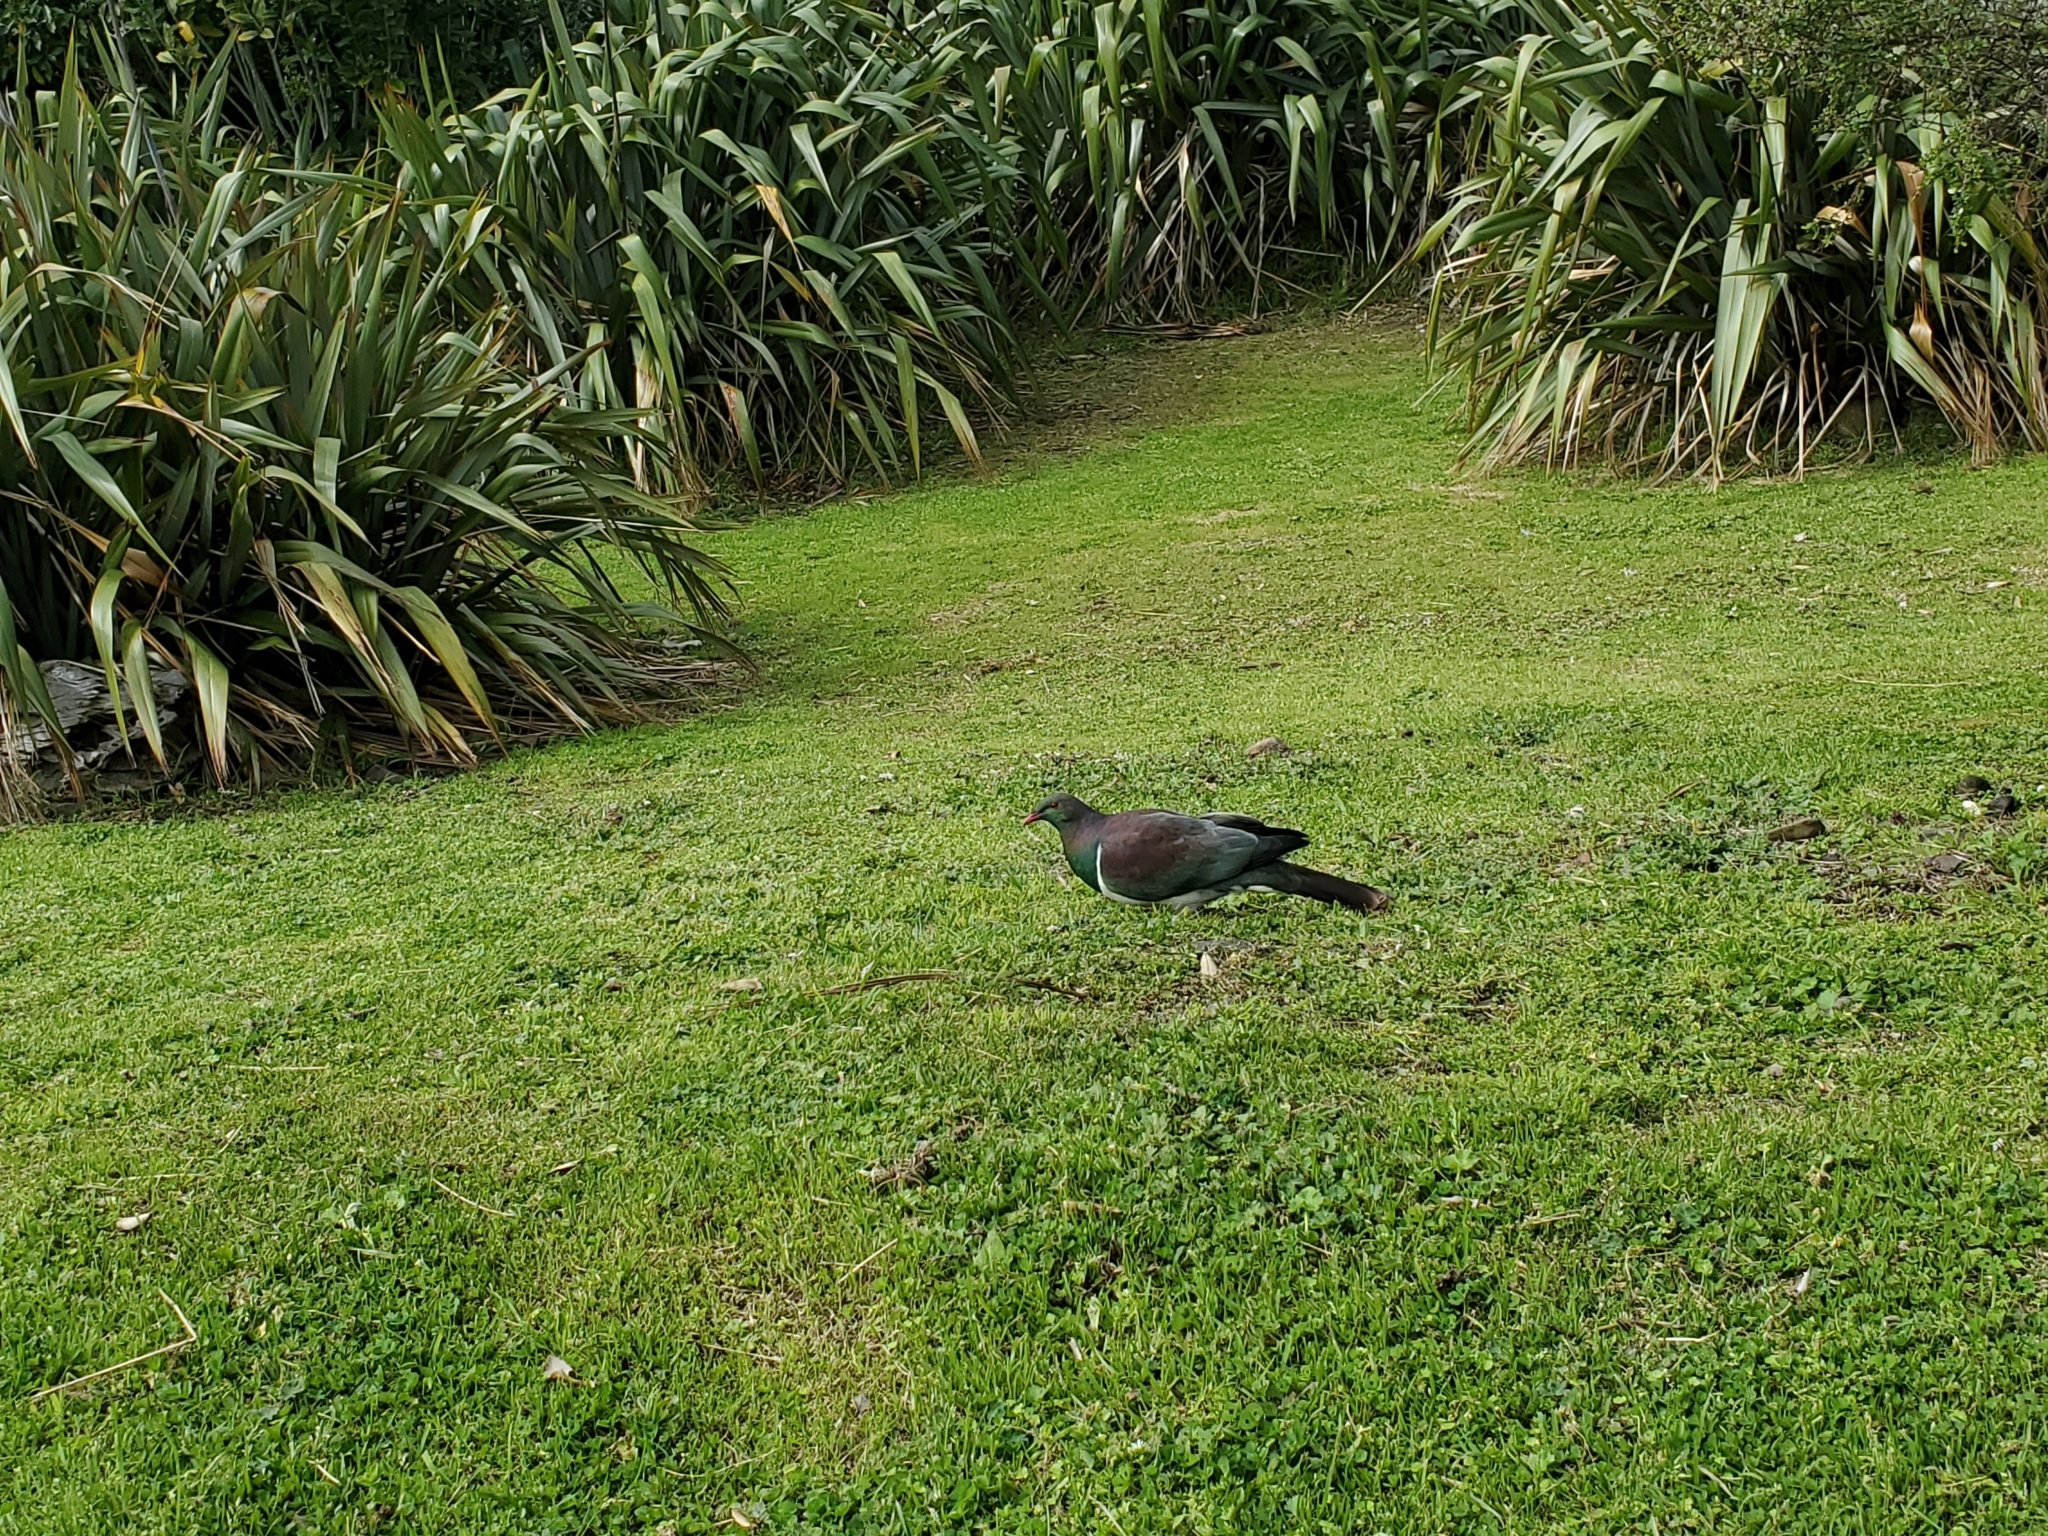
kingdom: Animalia
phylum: Chordata
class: Aves
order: Columbiformes
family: Columbidae
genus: Hemiphaga
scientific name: Hemiphaga novaeseelandiae
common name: New zealand pigeon
